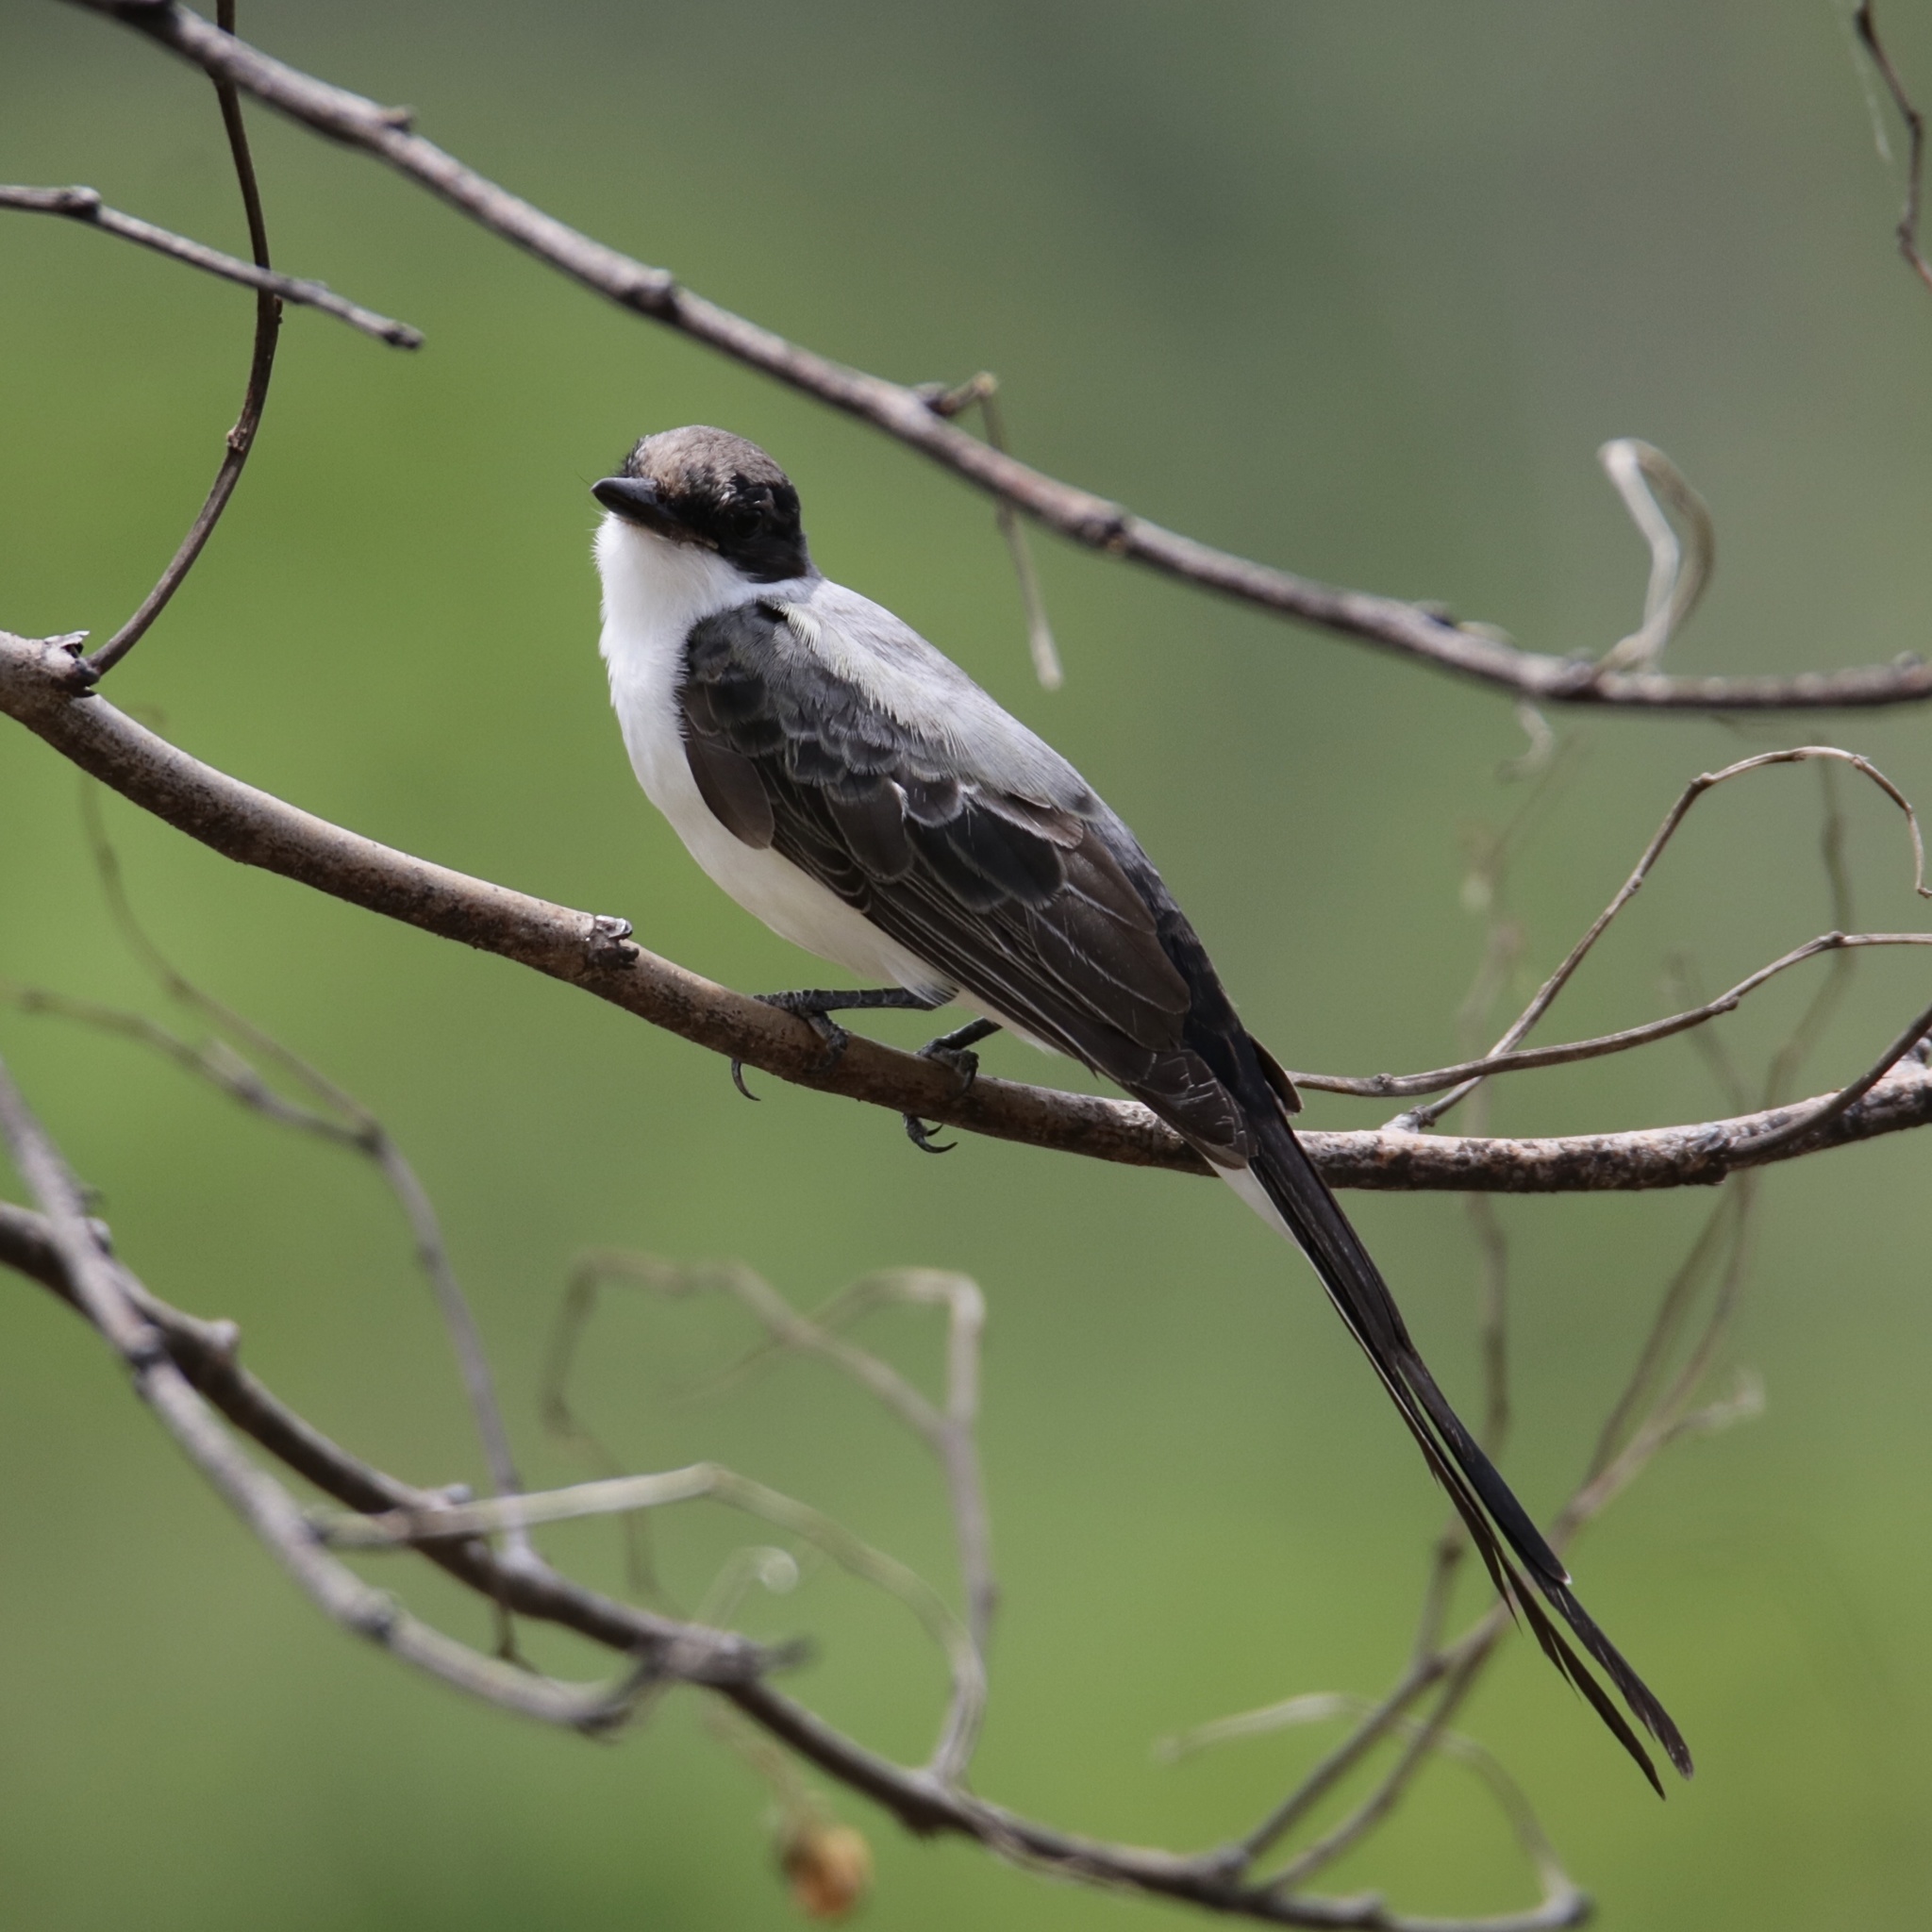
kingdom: Animalia
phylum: Chordata
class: Aves
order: Passeriformes
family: Tyrannidae
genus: Tyrannus
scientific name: Tyrannus savana
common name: Fork-tailed flycatcher
